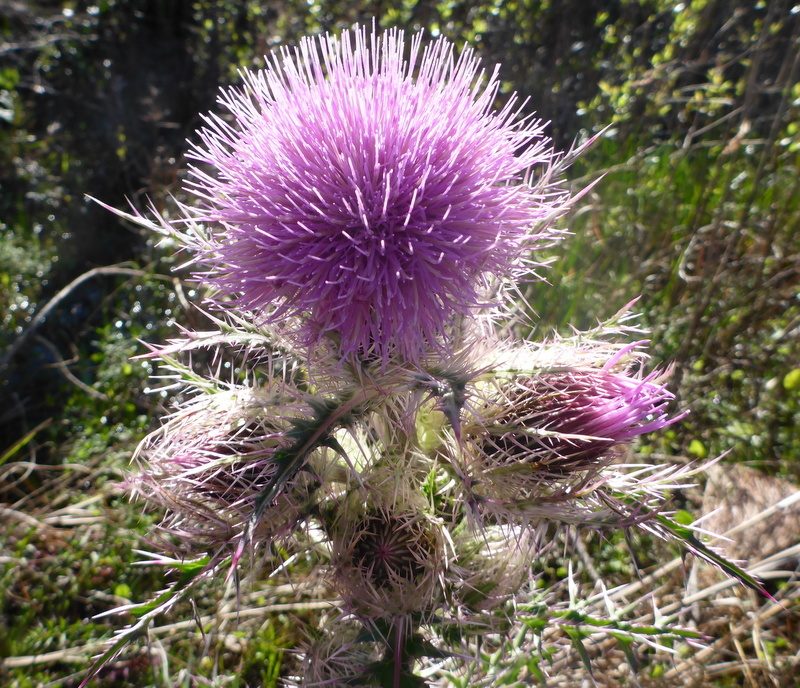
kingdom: Plantae
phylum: Tracheophyta
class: Magnoliopsida
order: Asterales
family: Asteraceae
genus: Cirsium
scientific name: Cirsium horridulum
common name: Bristly thistle
